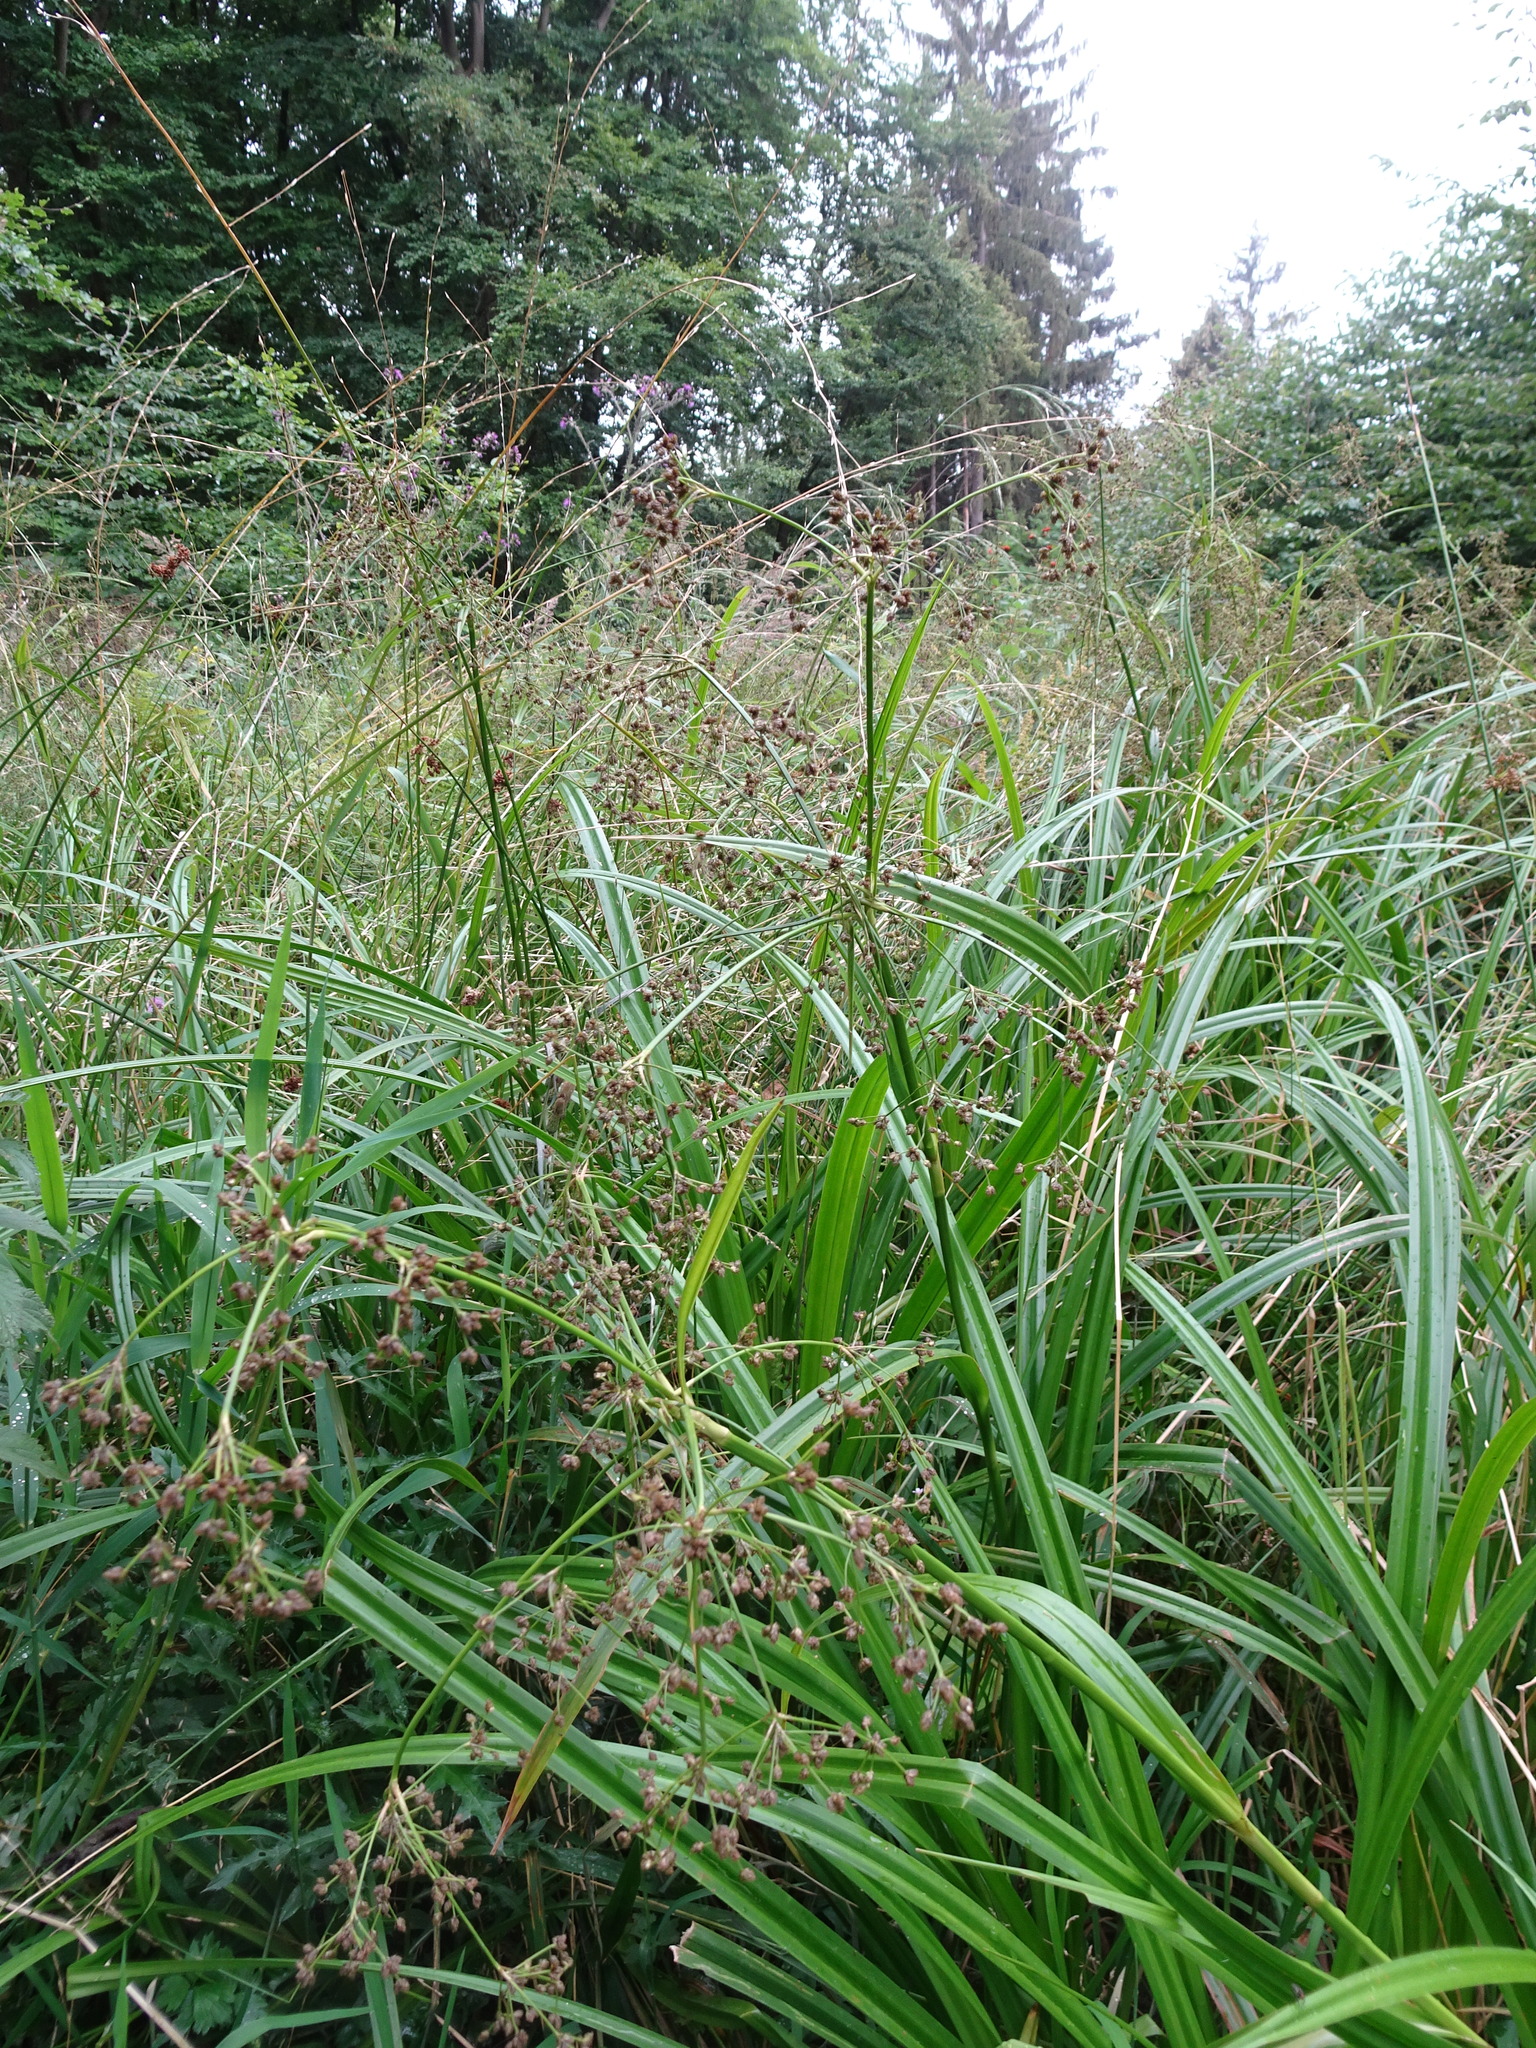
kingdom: Plantae
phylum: Tracheophyta
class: Liliopsida
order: Poales
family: Cyperaceae
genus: Scirpus
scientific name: Scirpus sylvaticus
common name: Wood club-rush
